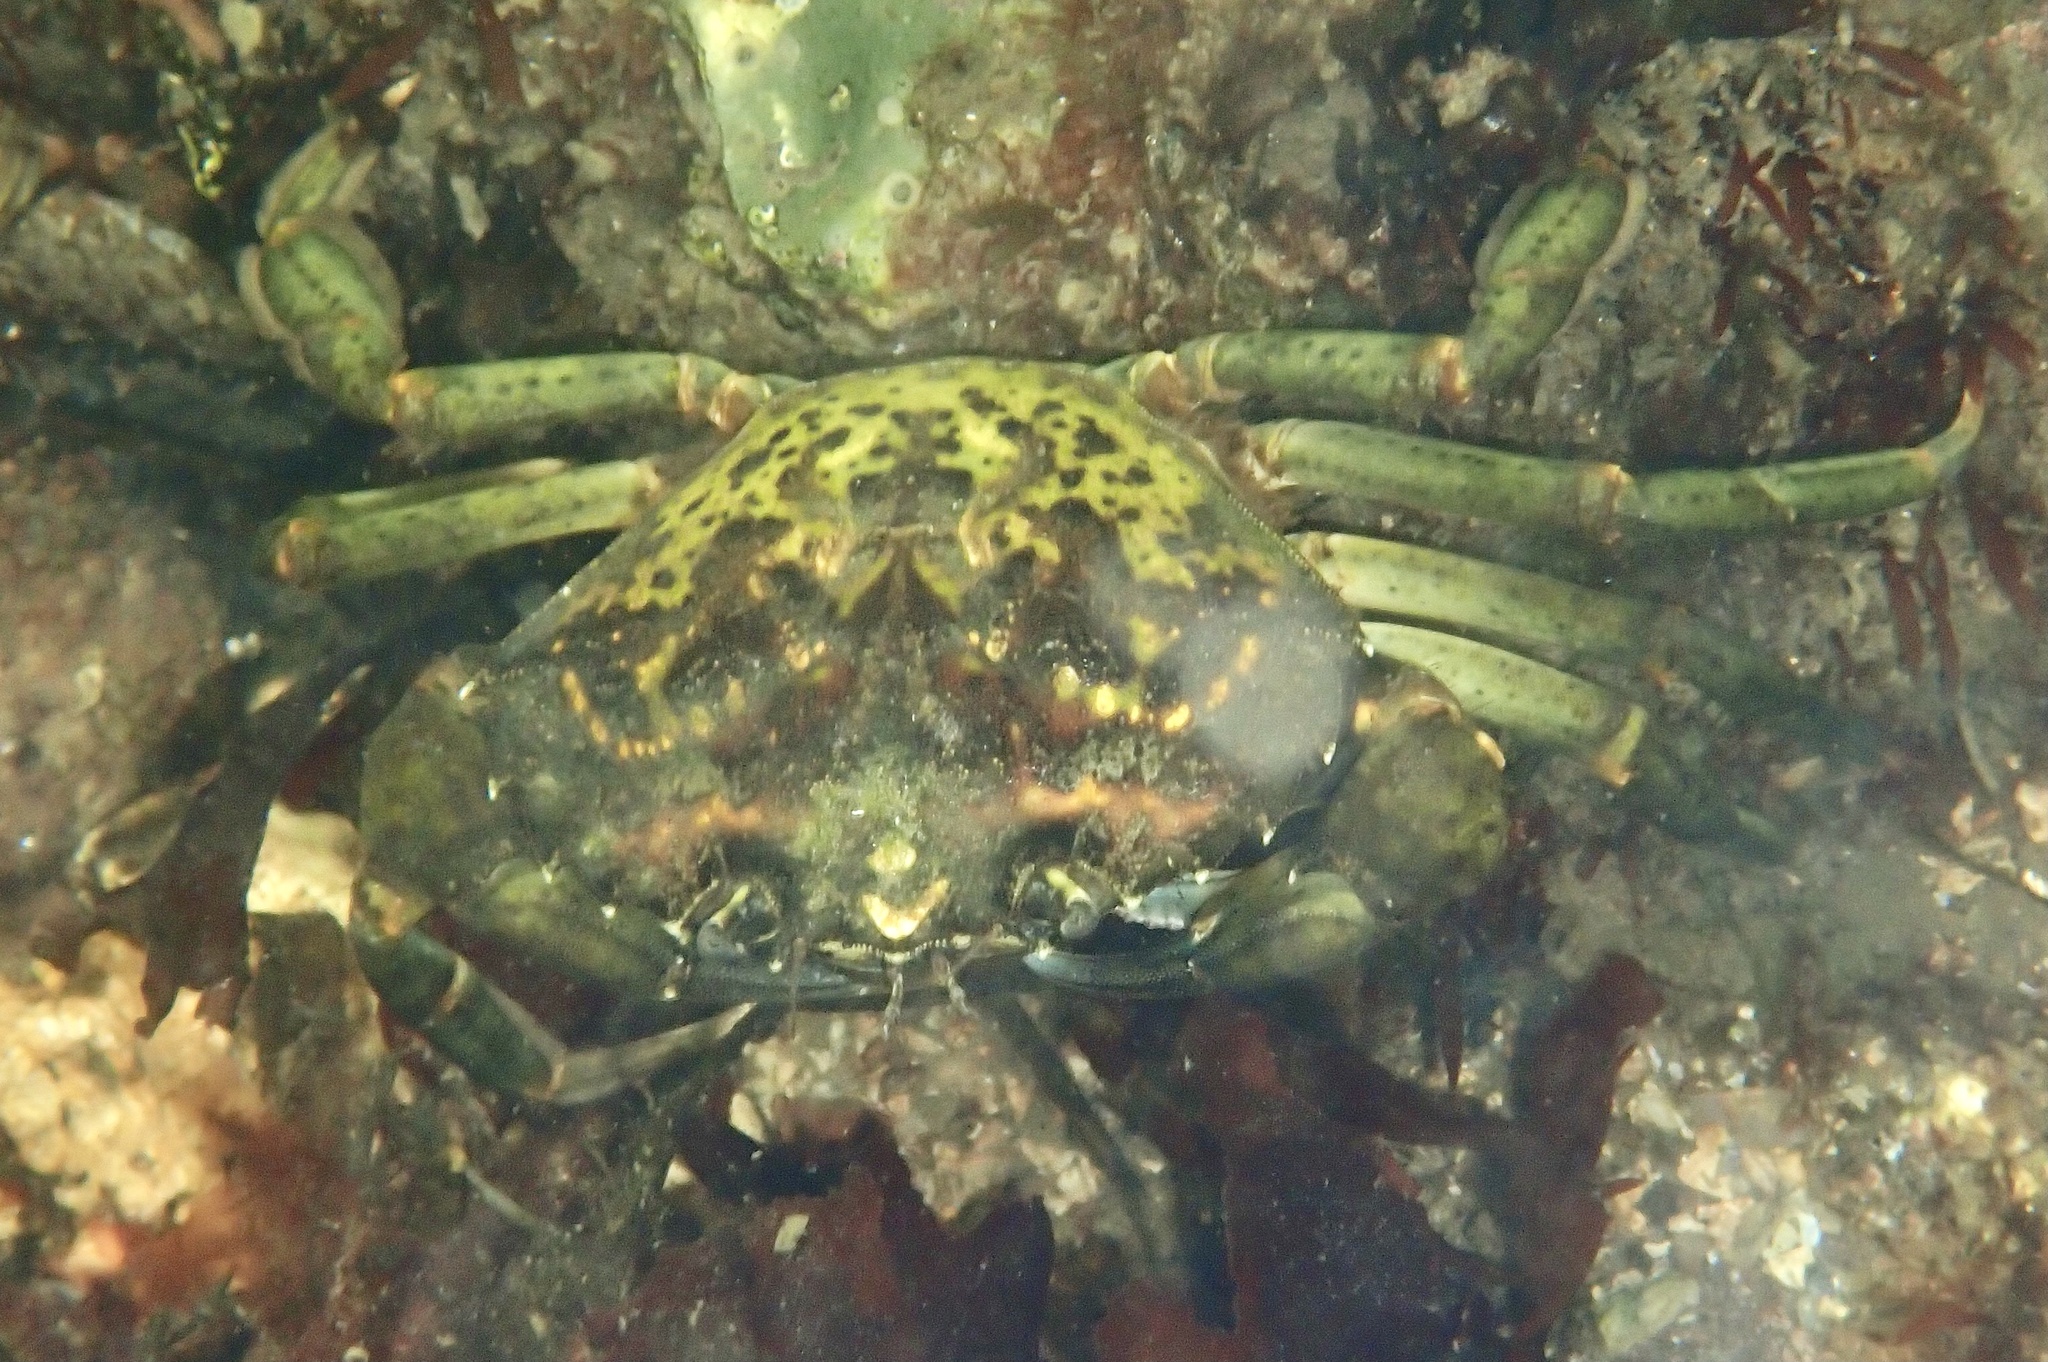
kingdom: Animalia
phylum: Arthropoda
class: Malacostraca
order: Decapoda
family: Carcinidae
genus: Carcinus
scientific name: Carcinus maenas
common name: European green crab
